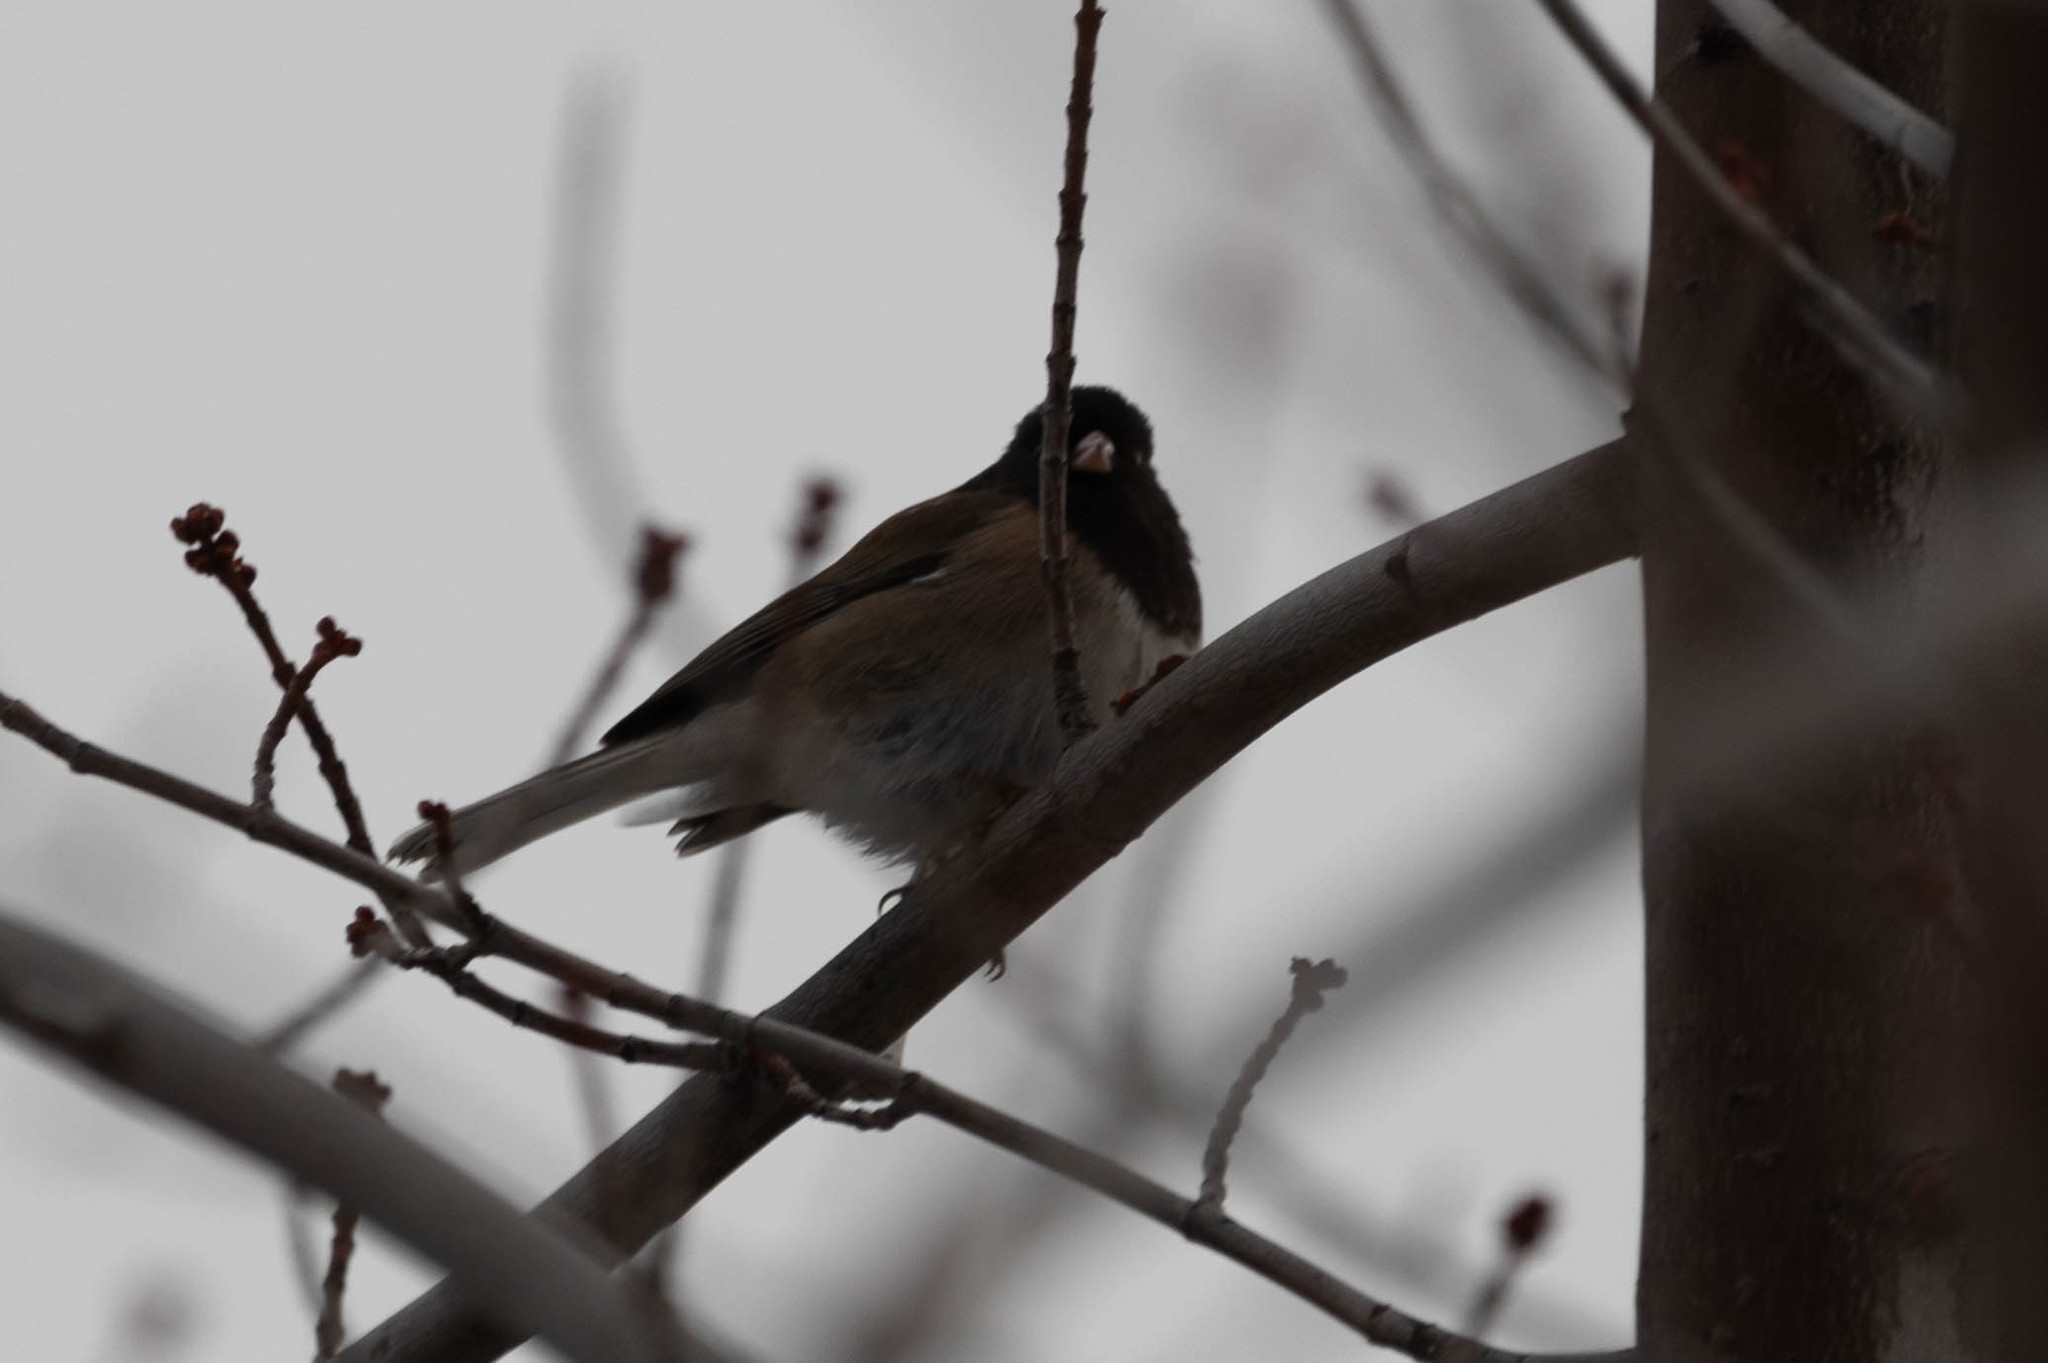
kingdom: Animalia
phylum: Chordata
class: Aves
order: Passeriformes
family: Passerellidae
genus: Junco
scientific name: Junco hyemalis
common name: Dark-eyed junco
